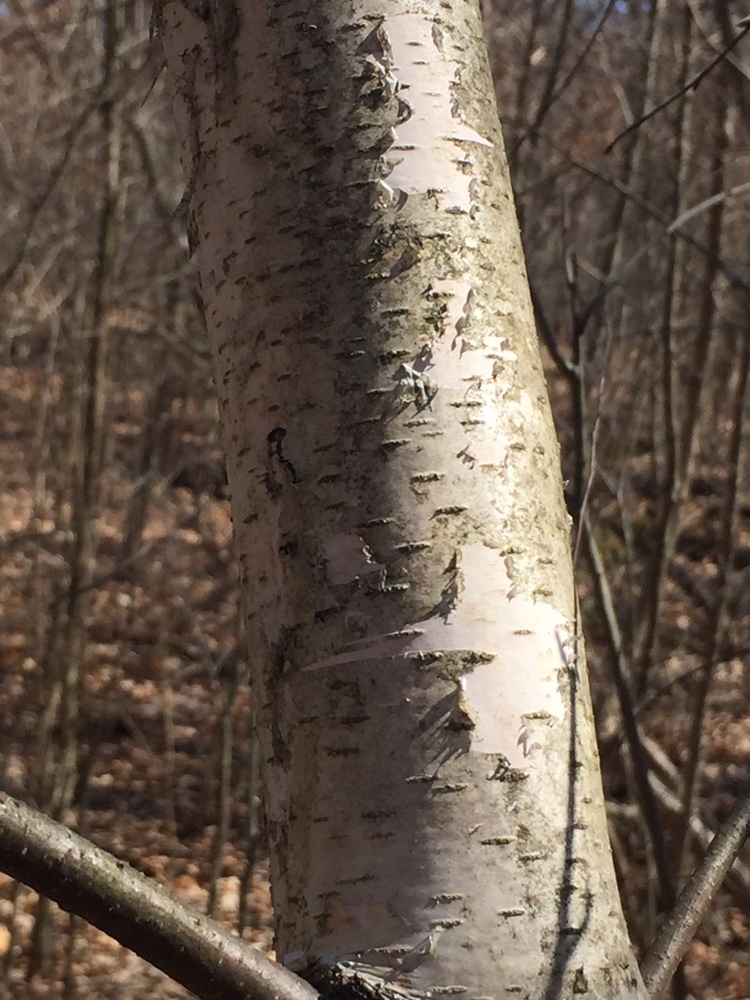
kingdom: Plantae
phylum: Tracheophyta
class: Magnoliopsida
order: Fagales
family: Betulaceae
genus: Betula
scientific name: Betula papyrifera
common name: Paper birch
